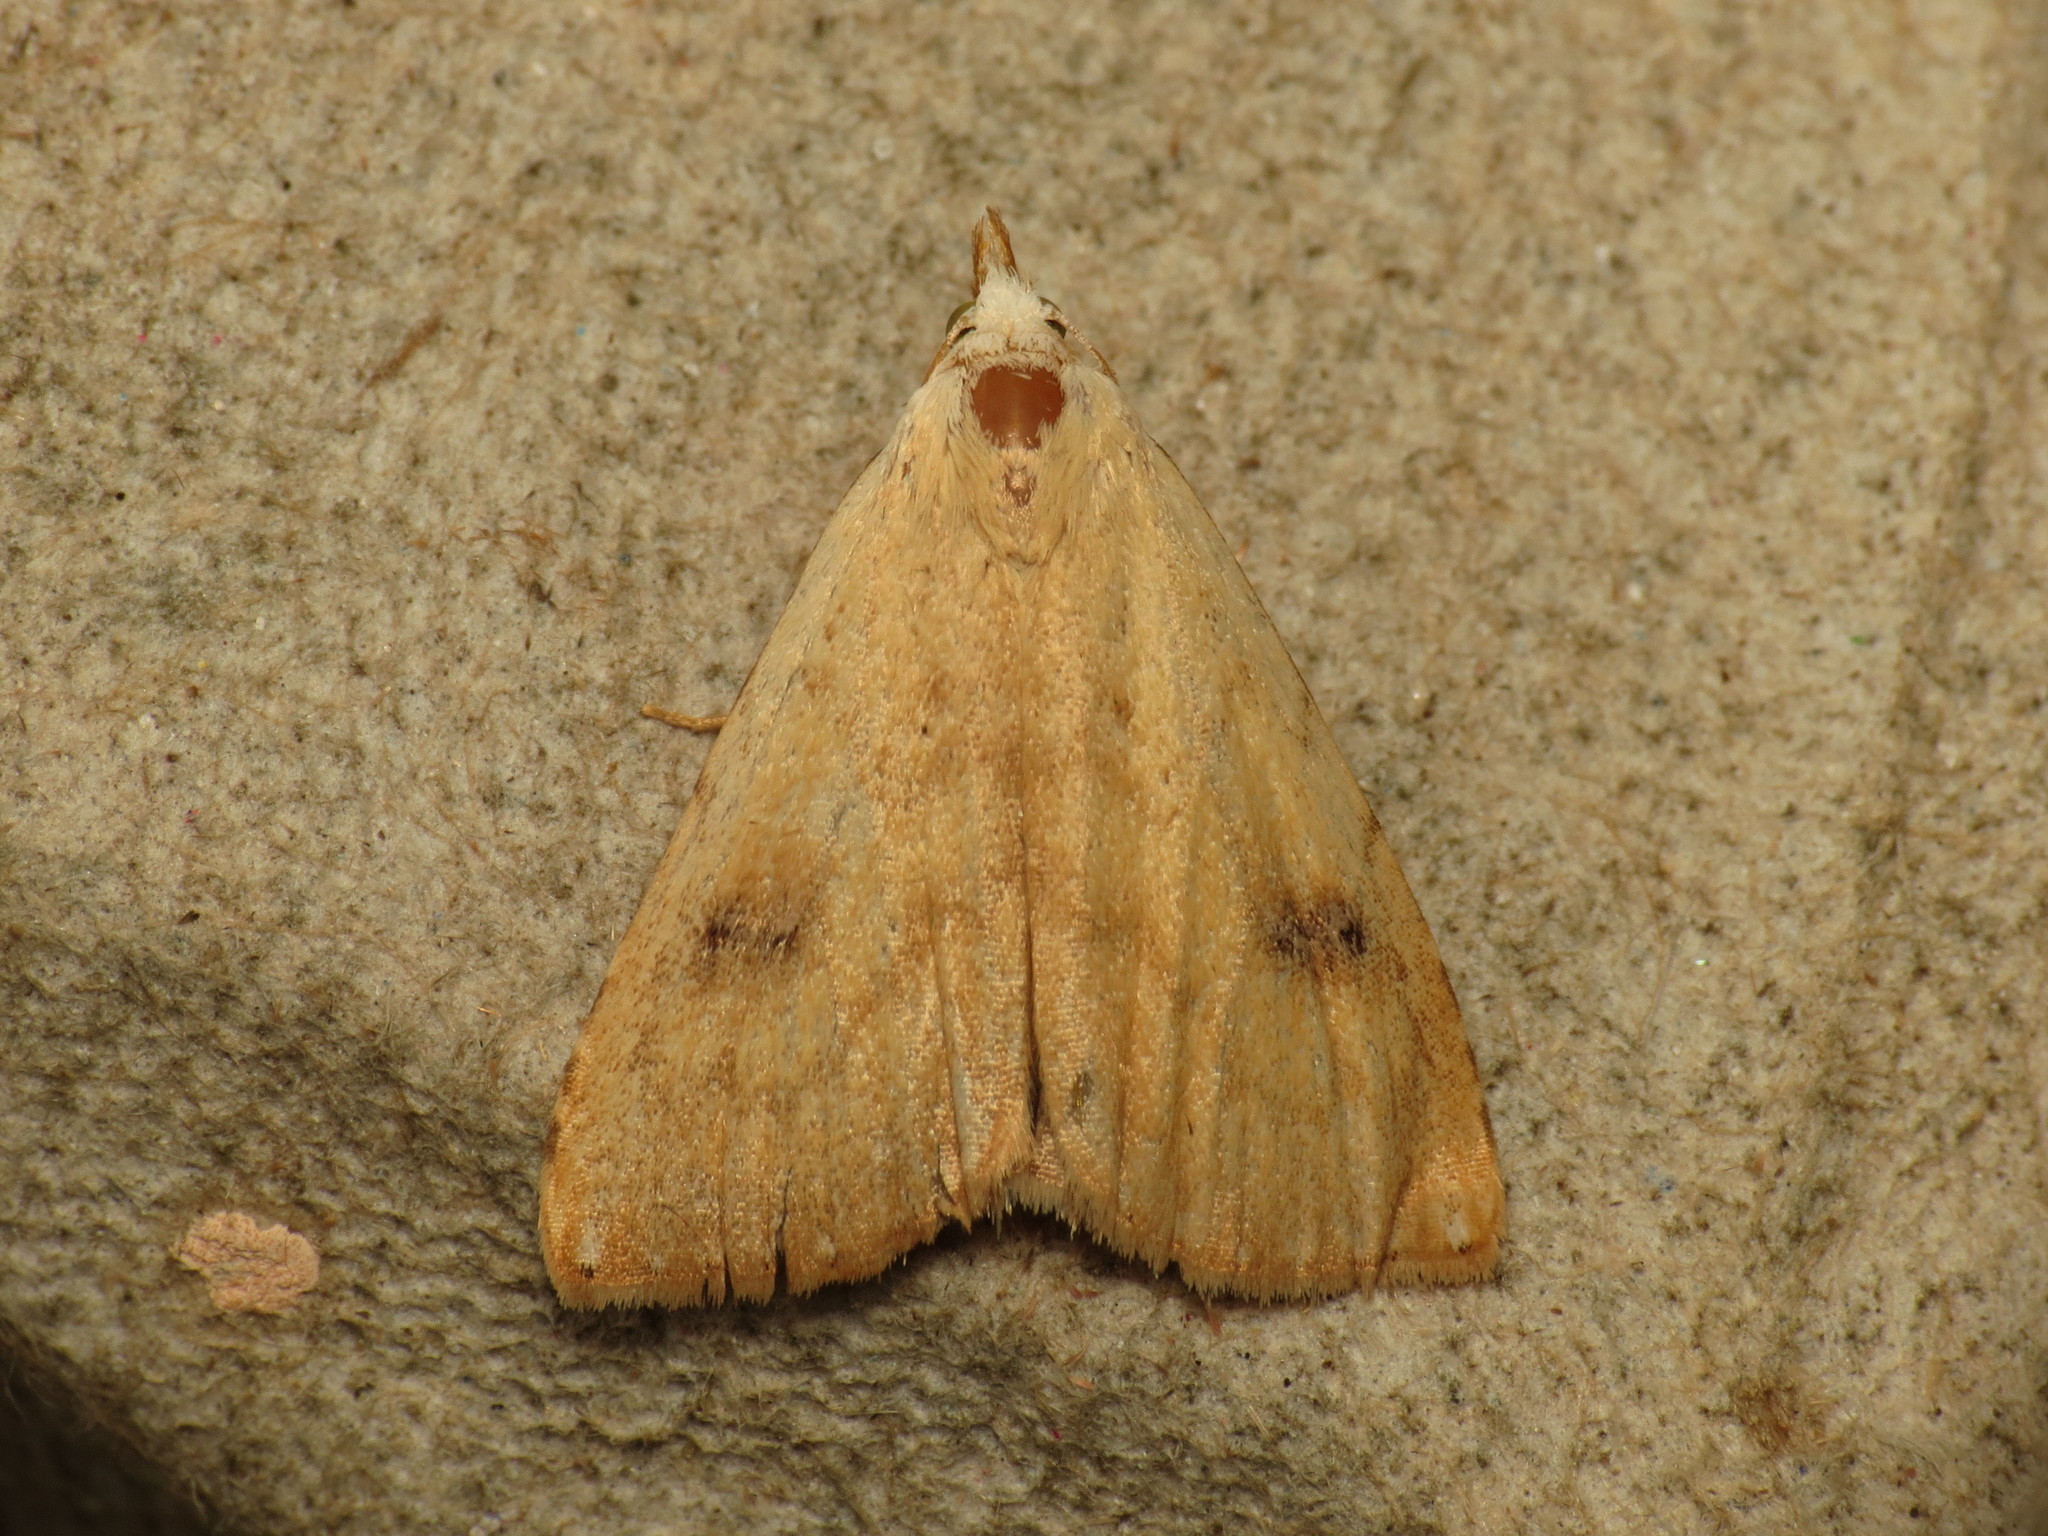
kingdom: Animalia
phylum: Arthropoda
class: Insecta
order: Lepidoptera
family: Erebidae
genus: Rivula
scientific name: Rivula sericealis
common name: Straw dot
